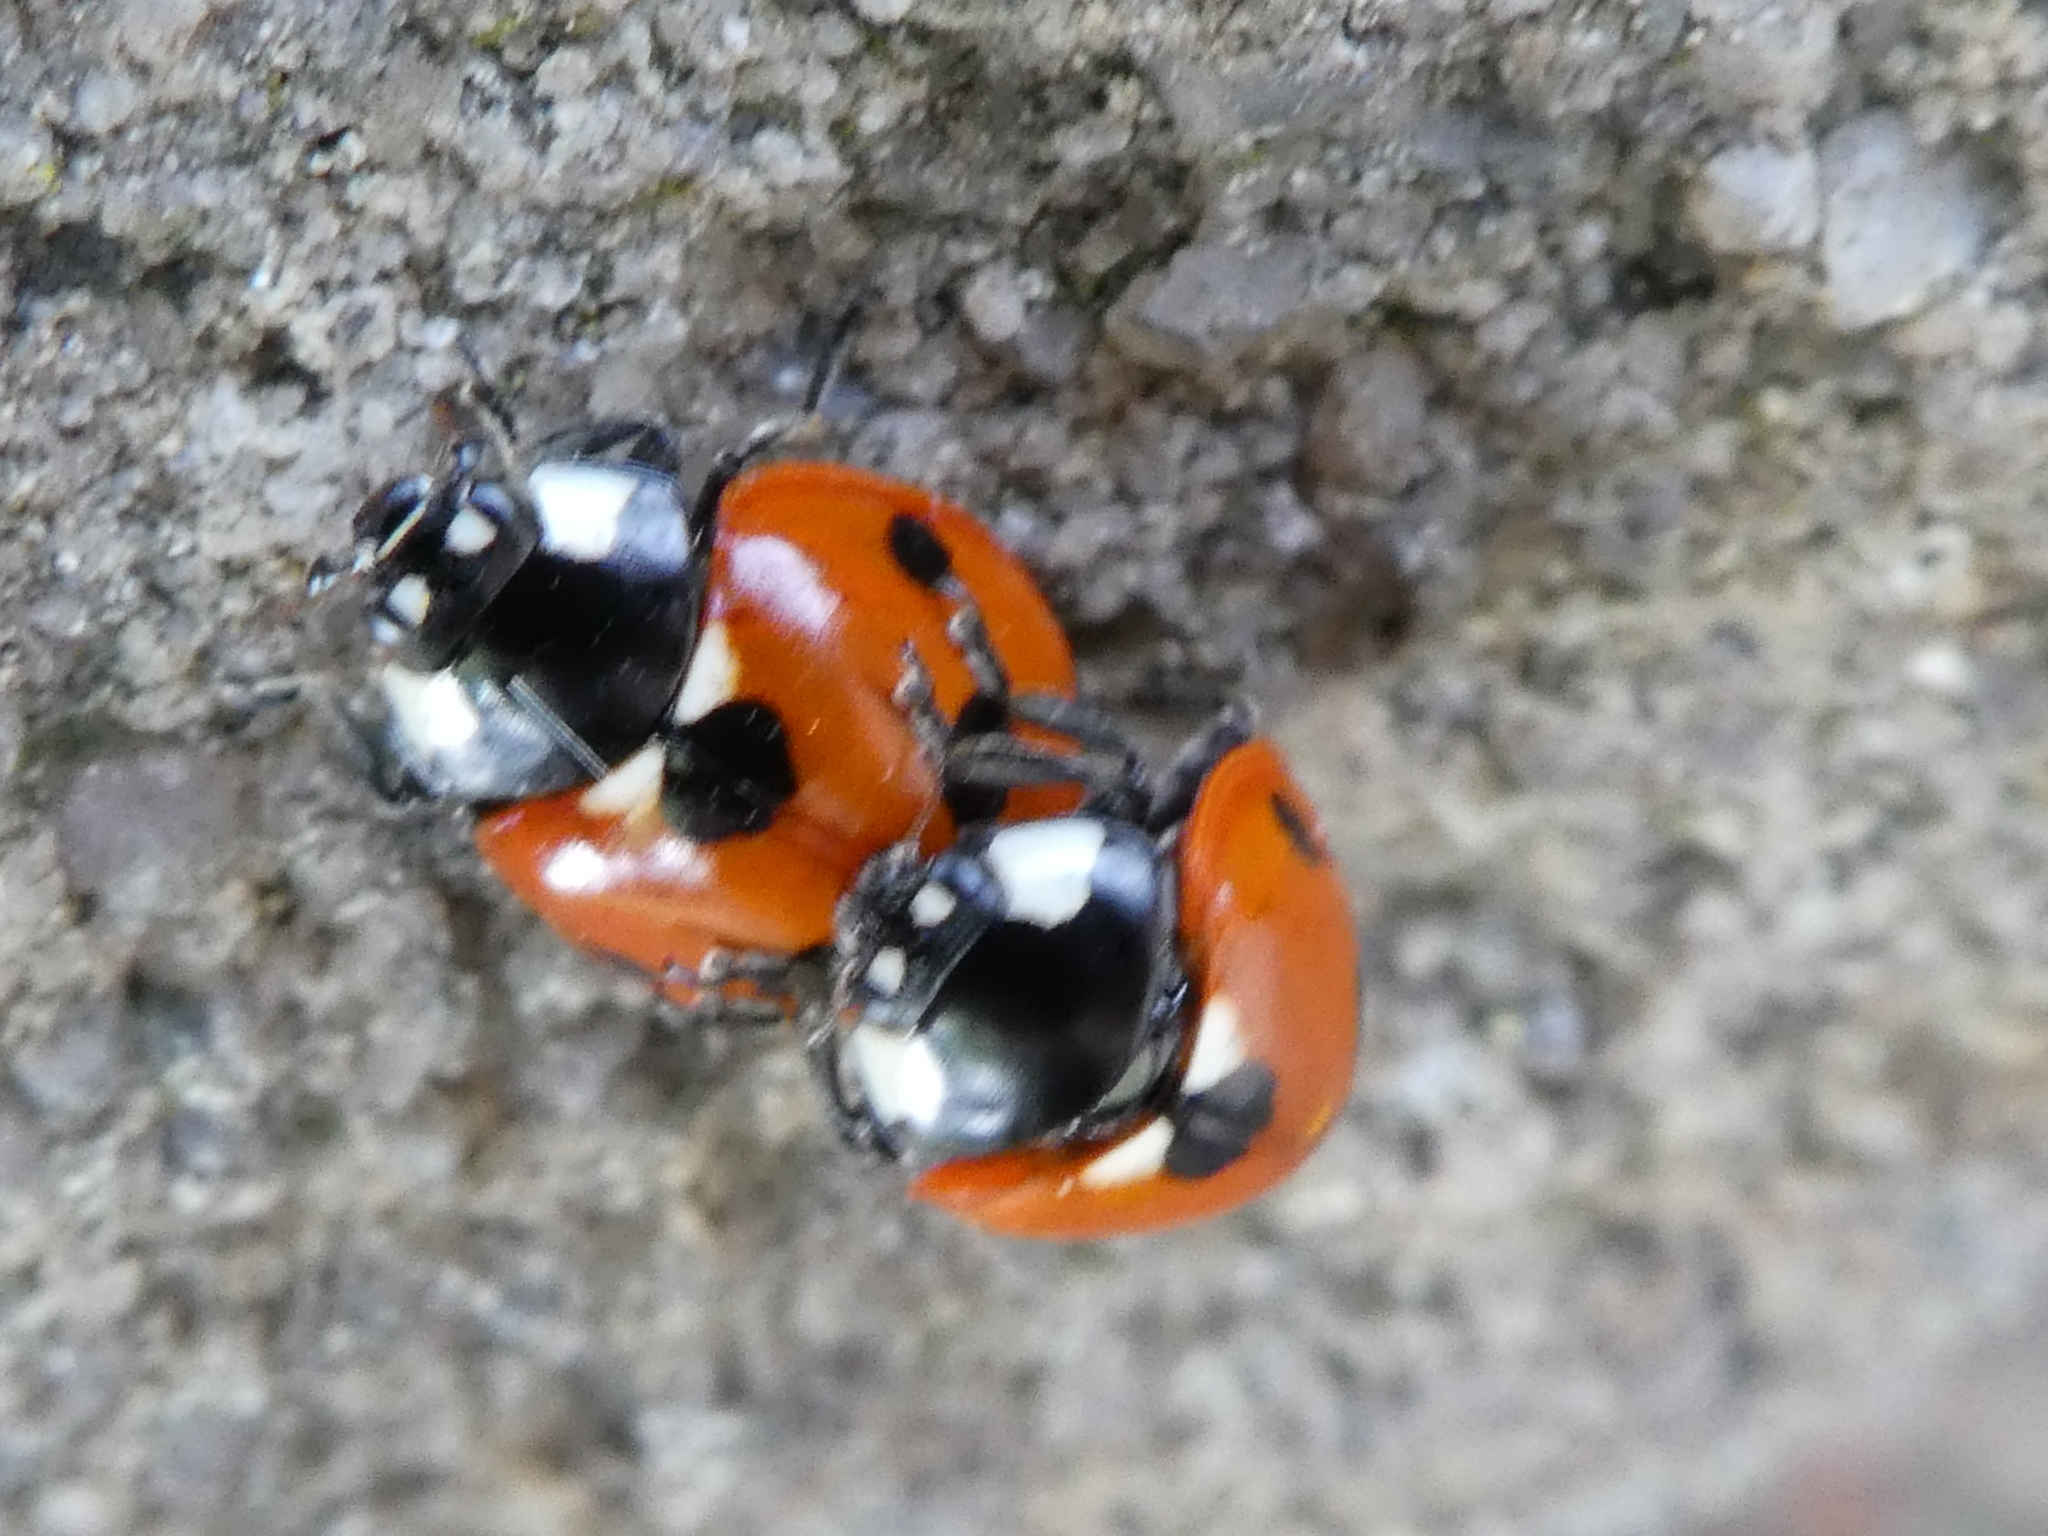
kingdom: Animalia
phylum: Arthropoda
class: Insecta
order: Coleoptera
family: Coccinellidae
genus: Coccinella
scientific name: Coccinella septempunctata
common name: Sevenspotted lady beetle
